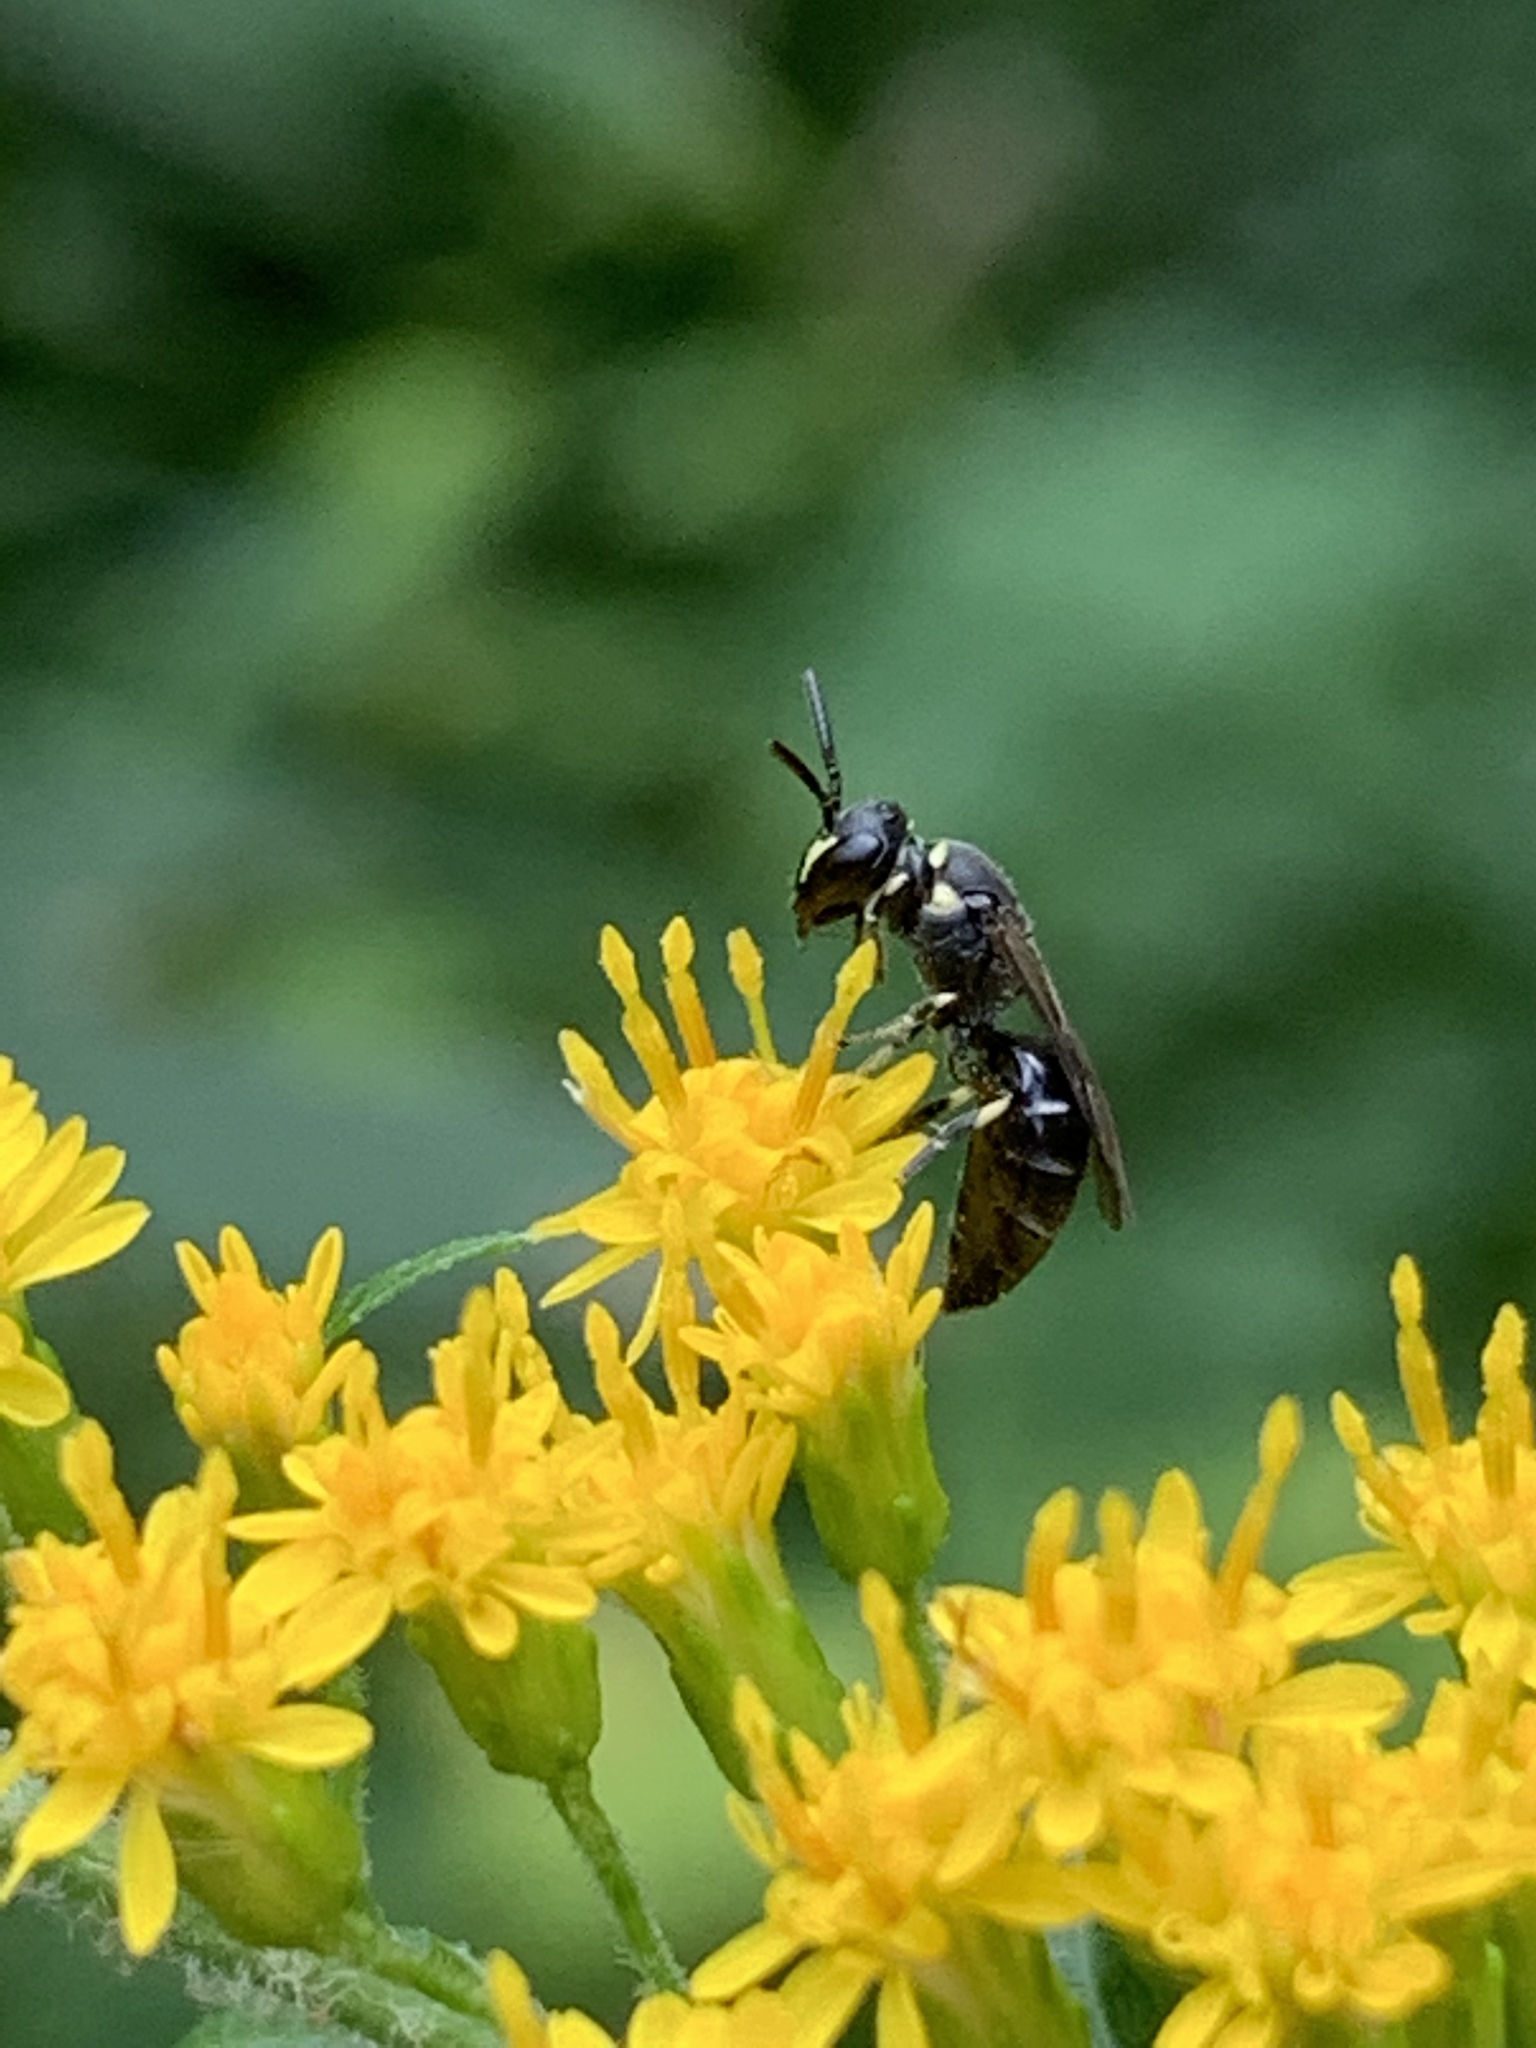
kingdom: Animalia
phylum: Arthropoda
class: Insecta
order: Hymenoptera
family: Colletidae
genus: Hylaeus
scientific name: Hylaeus modestus
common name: Yellow-faced bee
